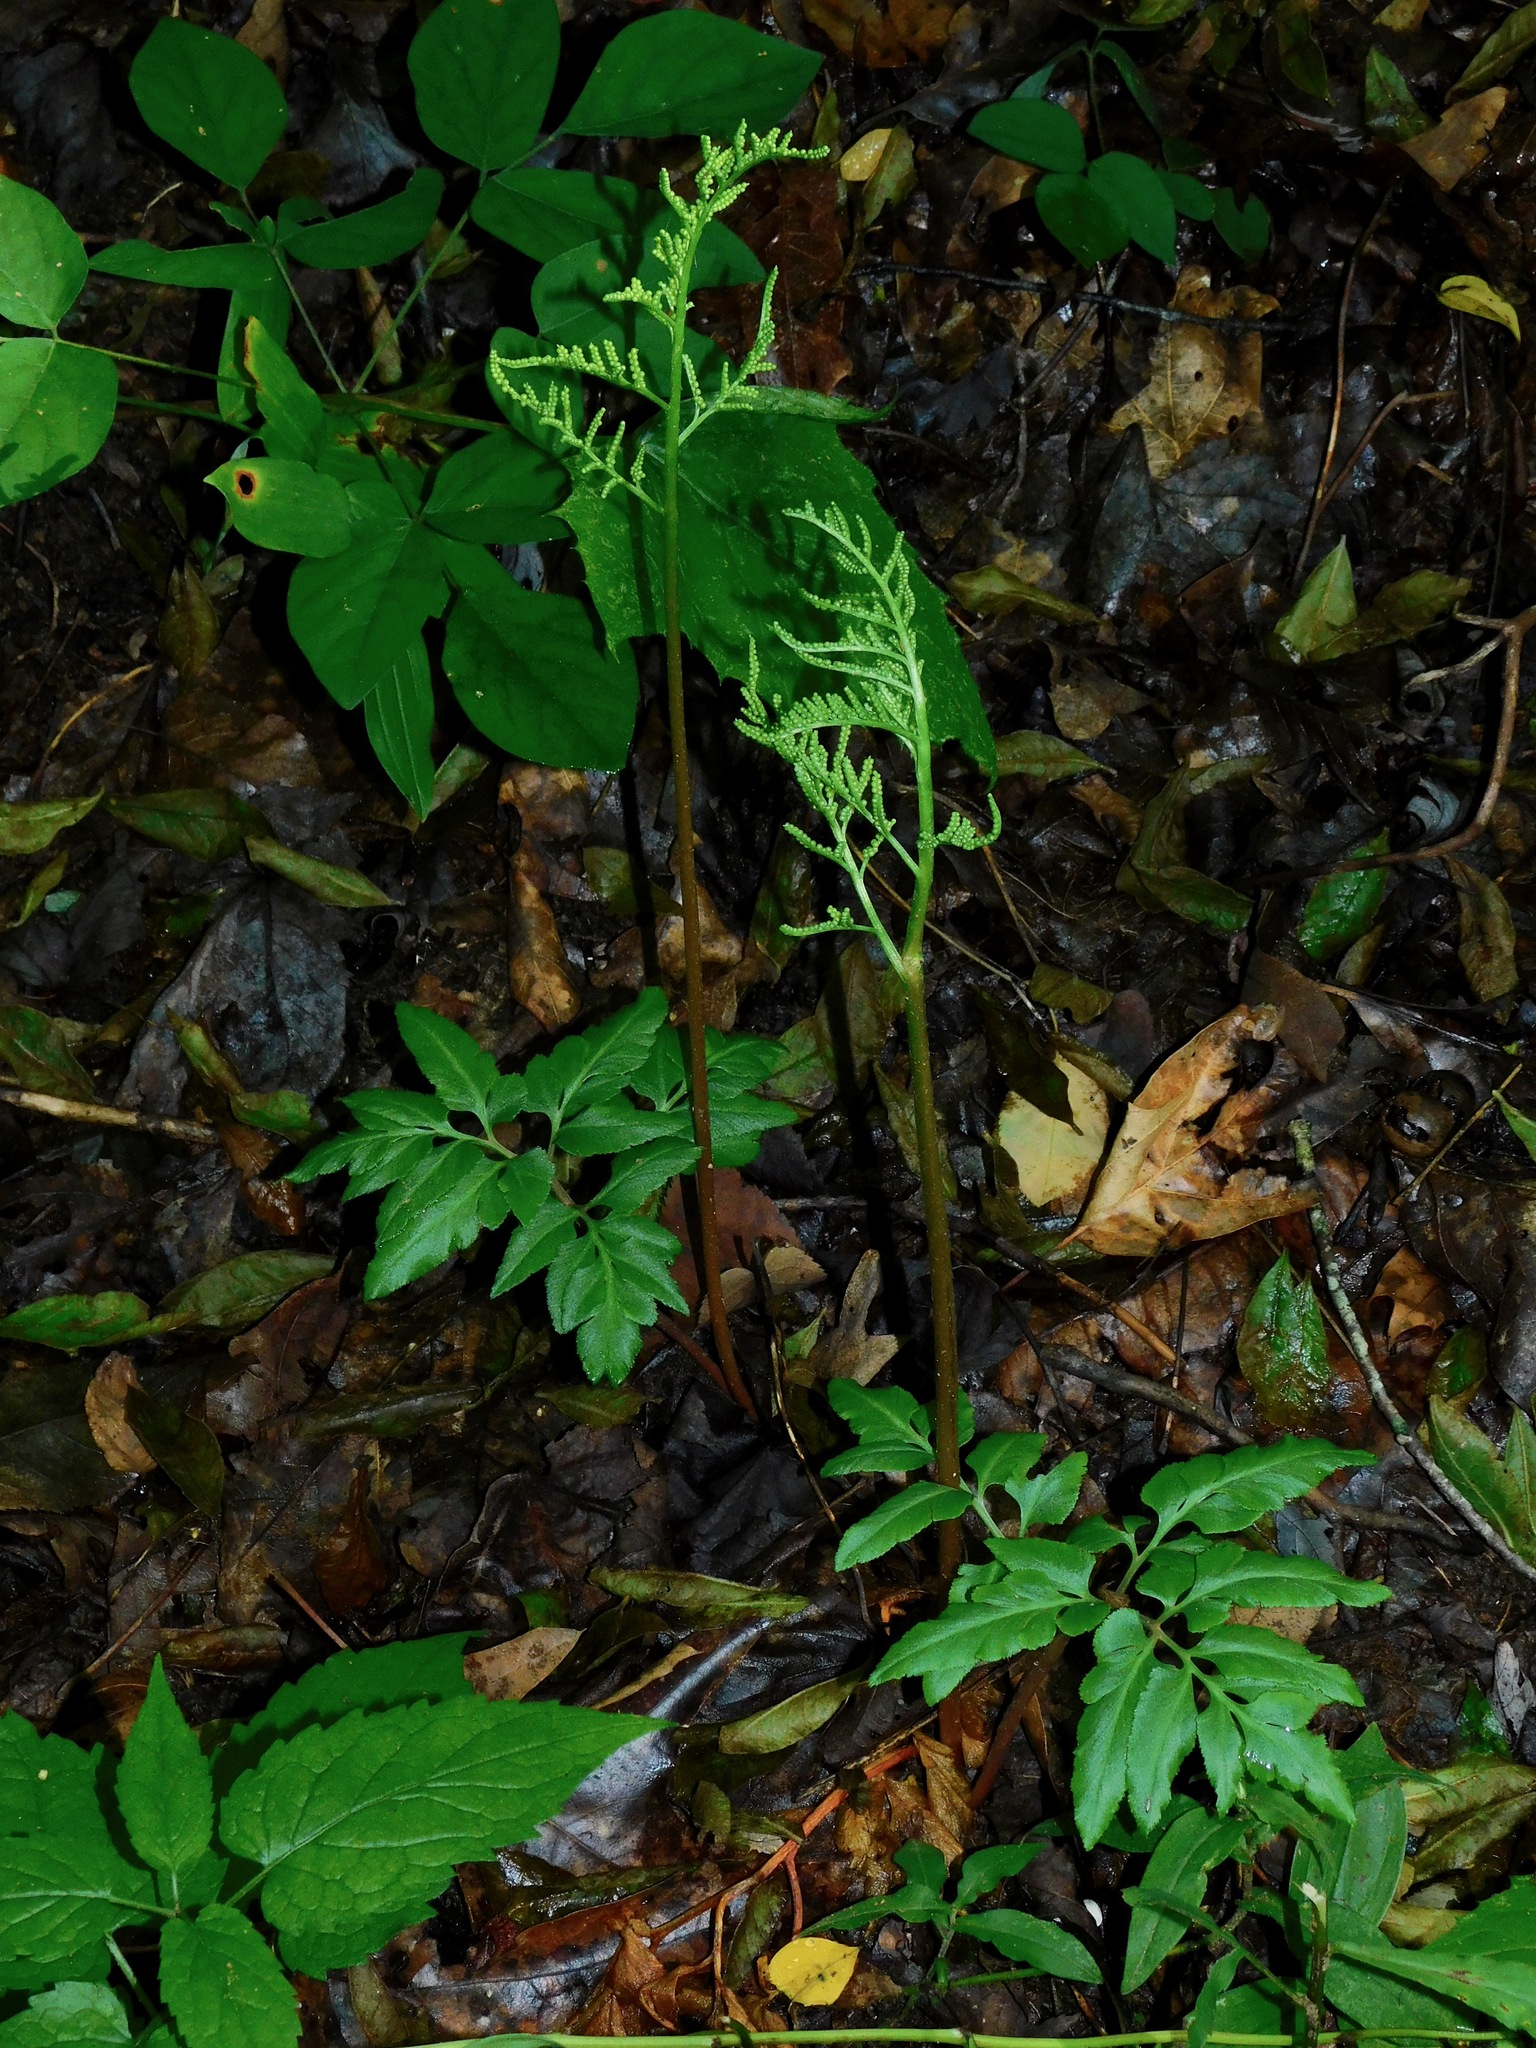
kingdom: Plantae
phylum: Tracheophyta
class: Polypodiopsida
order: Ophioglossales
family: Ophioglossaceae
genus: Sceptridium
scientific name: Sceptridium biternatum
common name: Sparse-lobed grapefern
